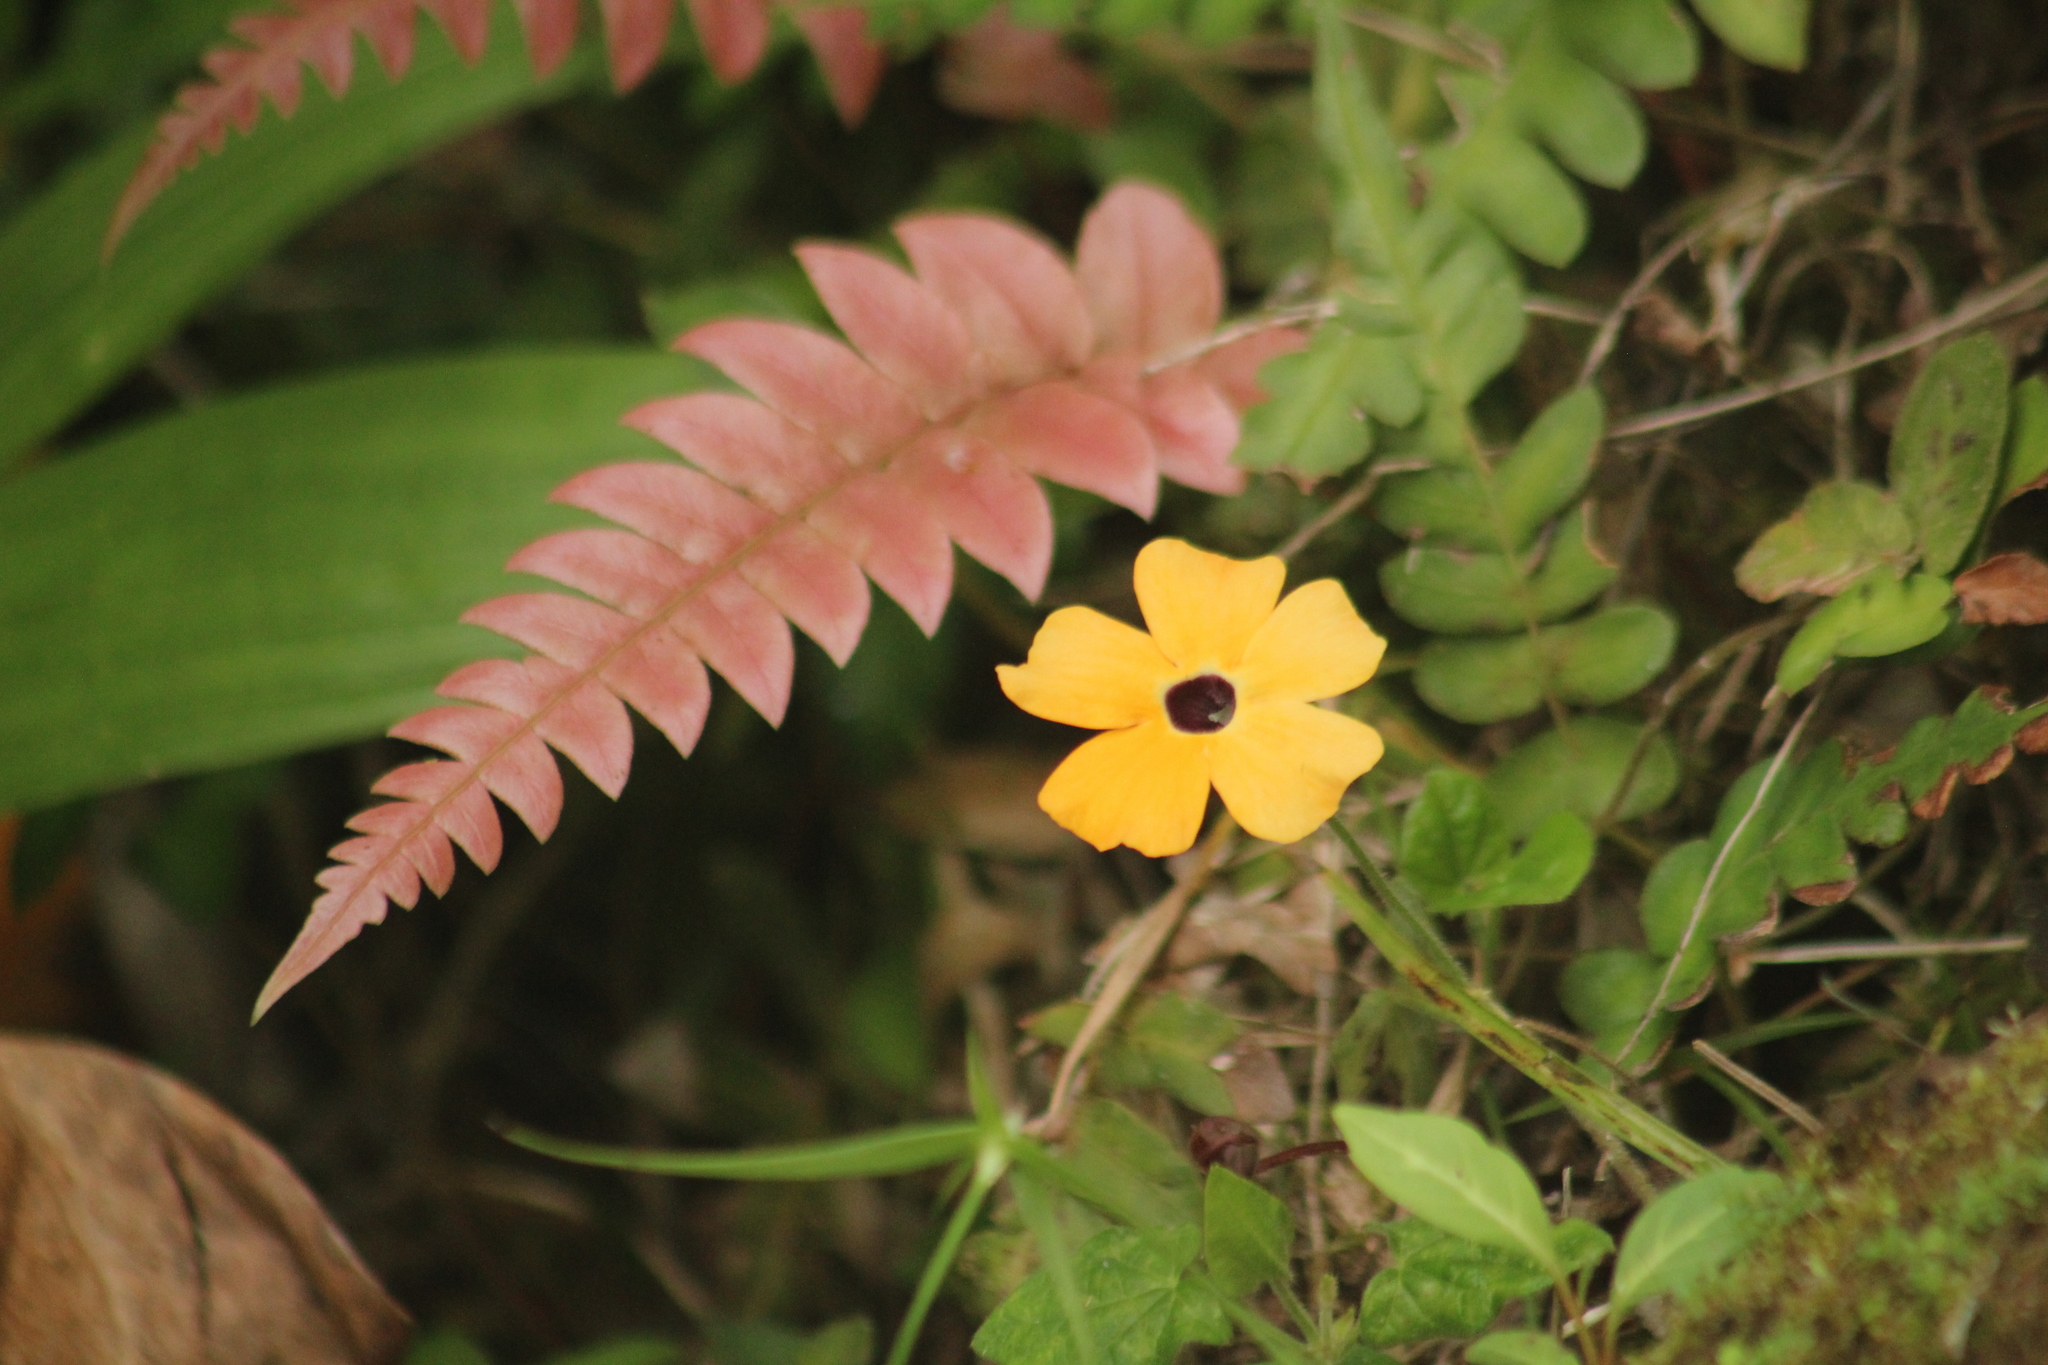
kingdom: Plantae
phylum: Tracheophyta
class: Magnoliopsida
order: Lamiales
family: Acanthaceae
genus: Thunbergia
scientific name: Thunbergia alata
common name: Blackeyed susan vine
